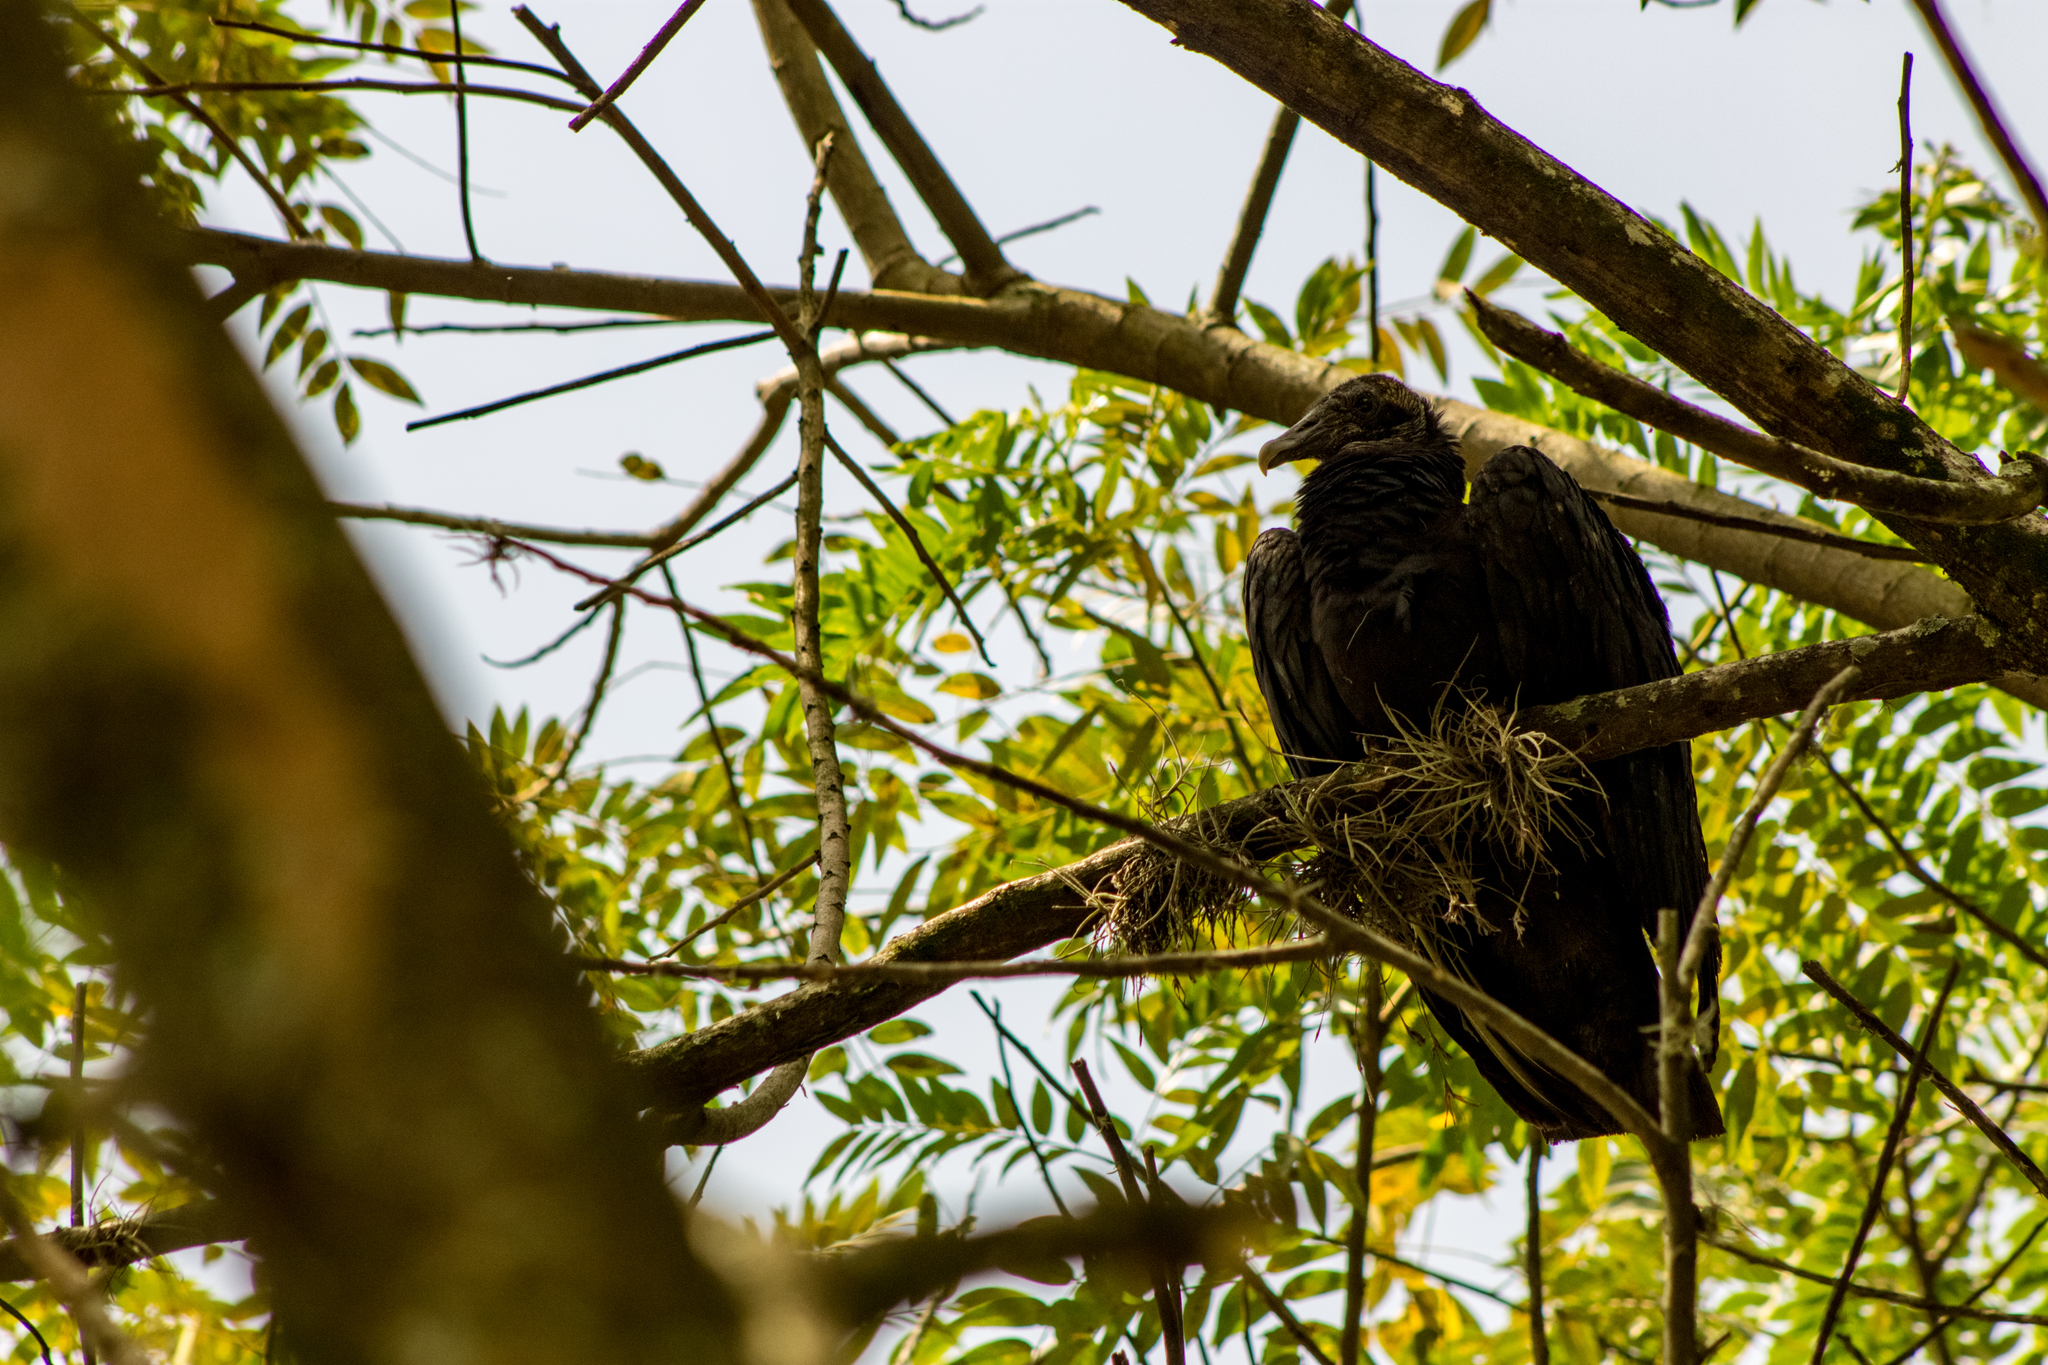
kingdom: Animalia
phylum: Chordata
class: Aves
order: Accipitriformes
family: Cathartidae
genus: Coragyps
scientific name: Coragyps atratus
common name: Black vulture
